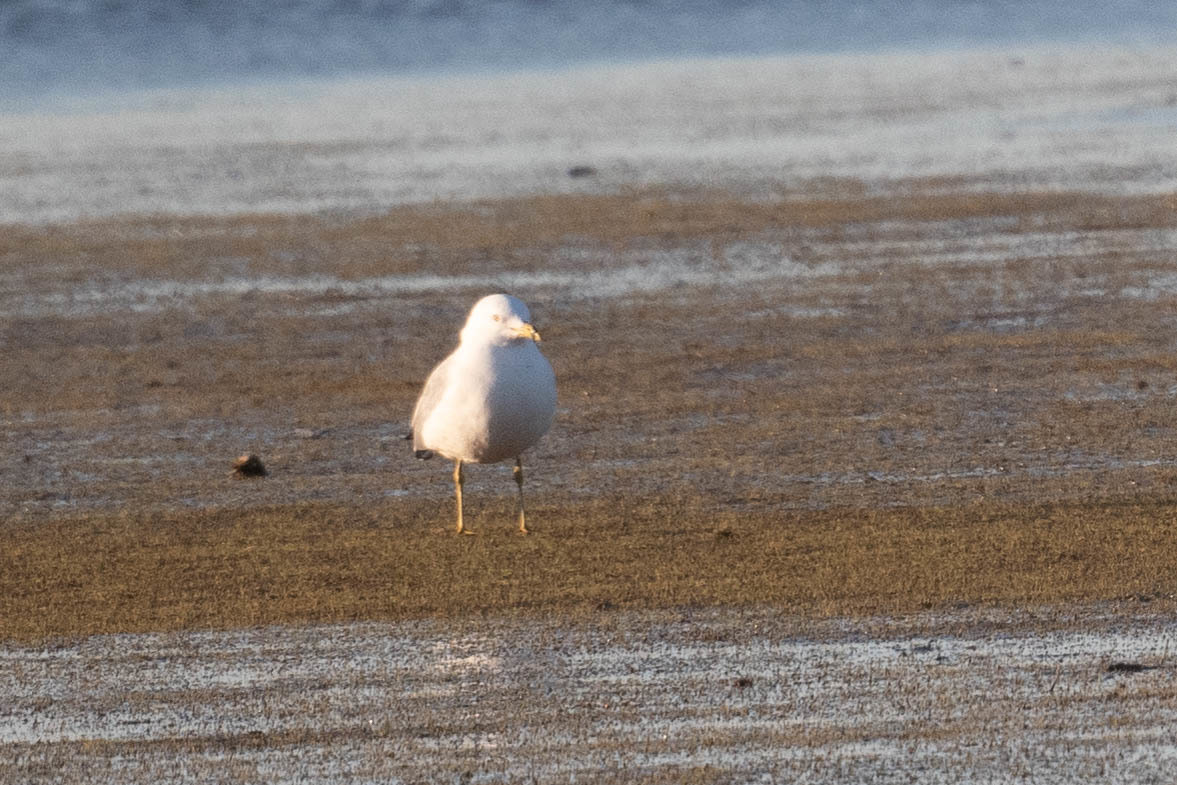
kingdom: Animalia
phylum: Chordata
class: Aves
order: Charadriiformes
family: Laridae
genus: Larus
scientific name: Larus delawarensis
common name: Ring-billed gull
